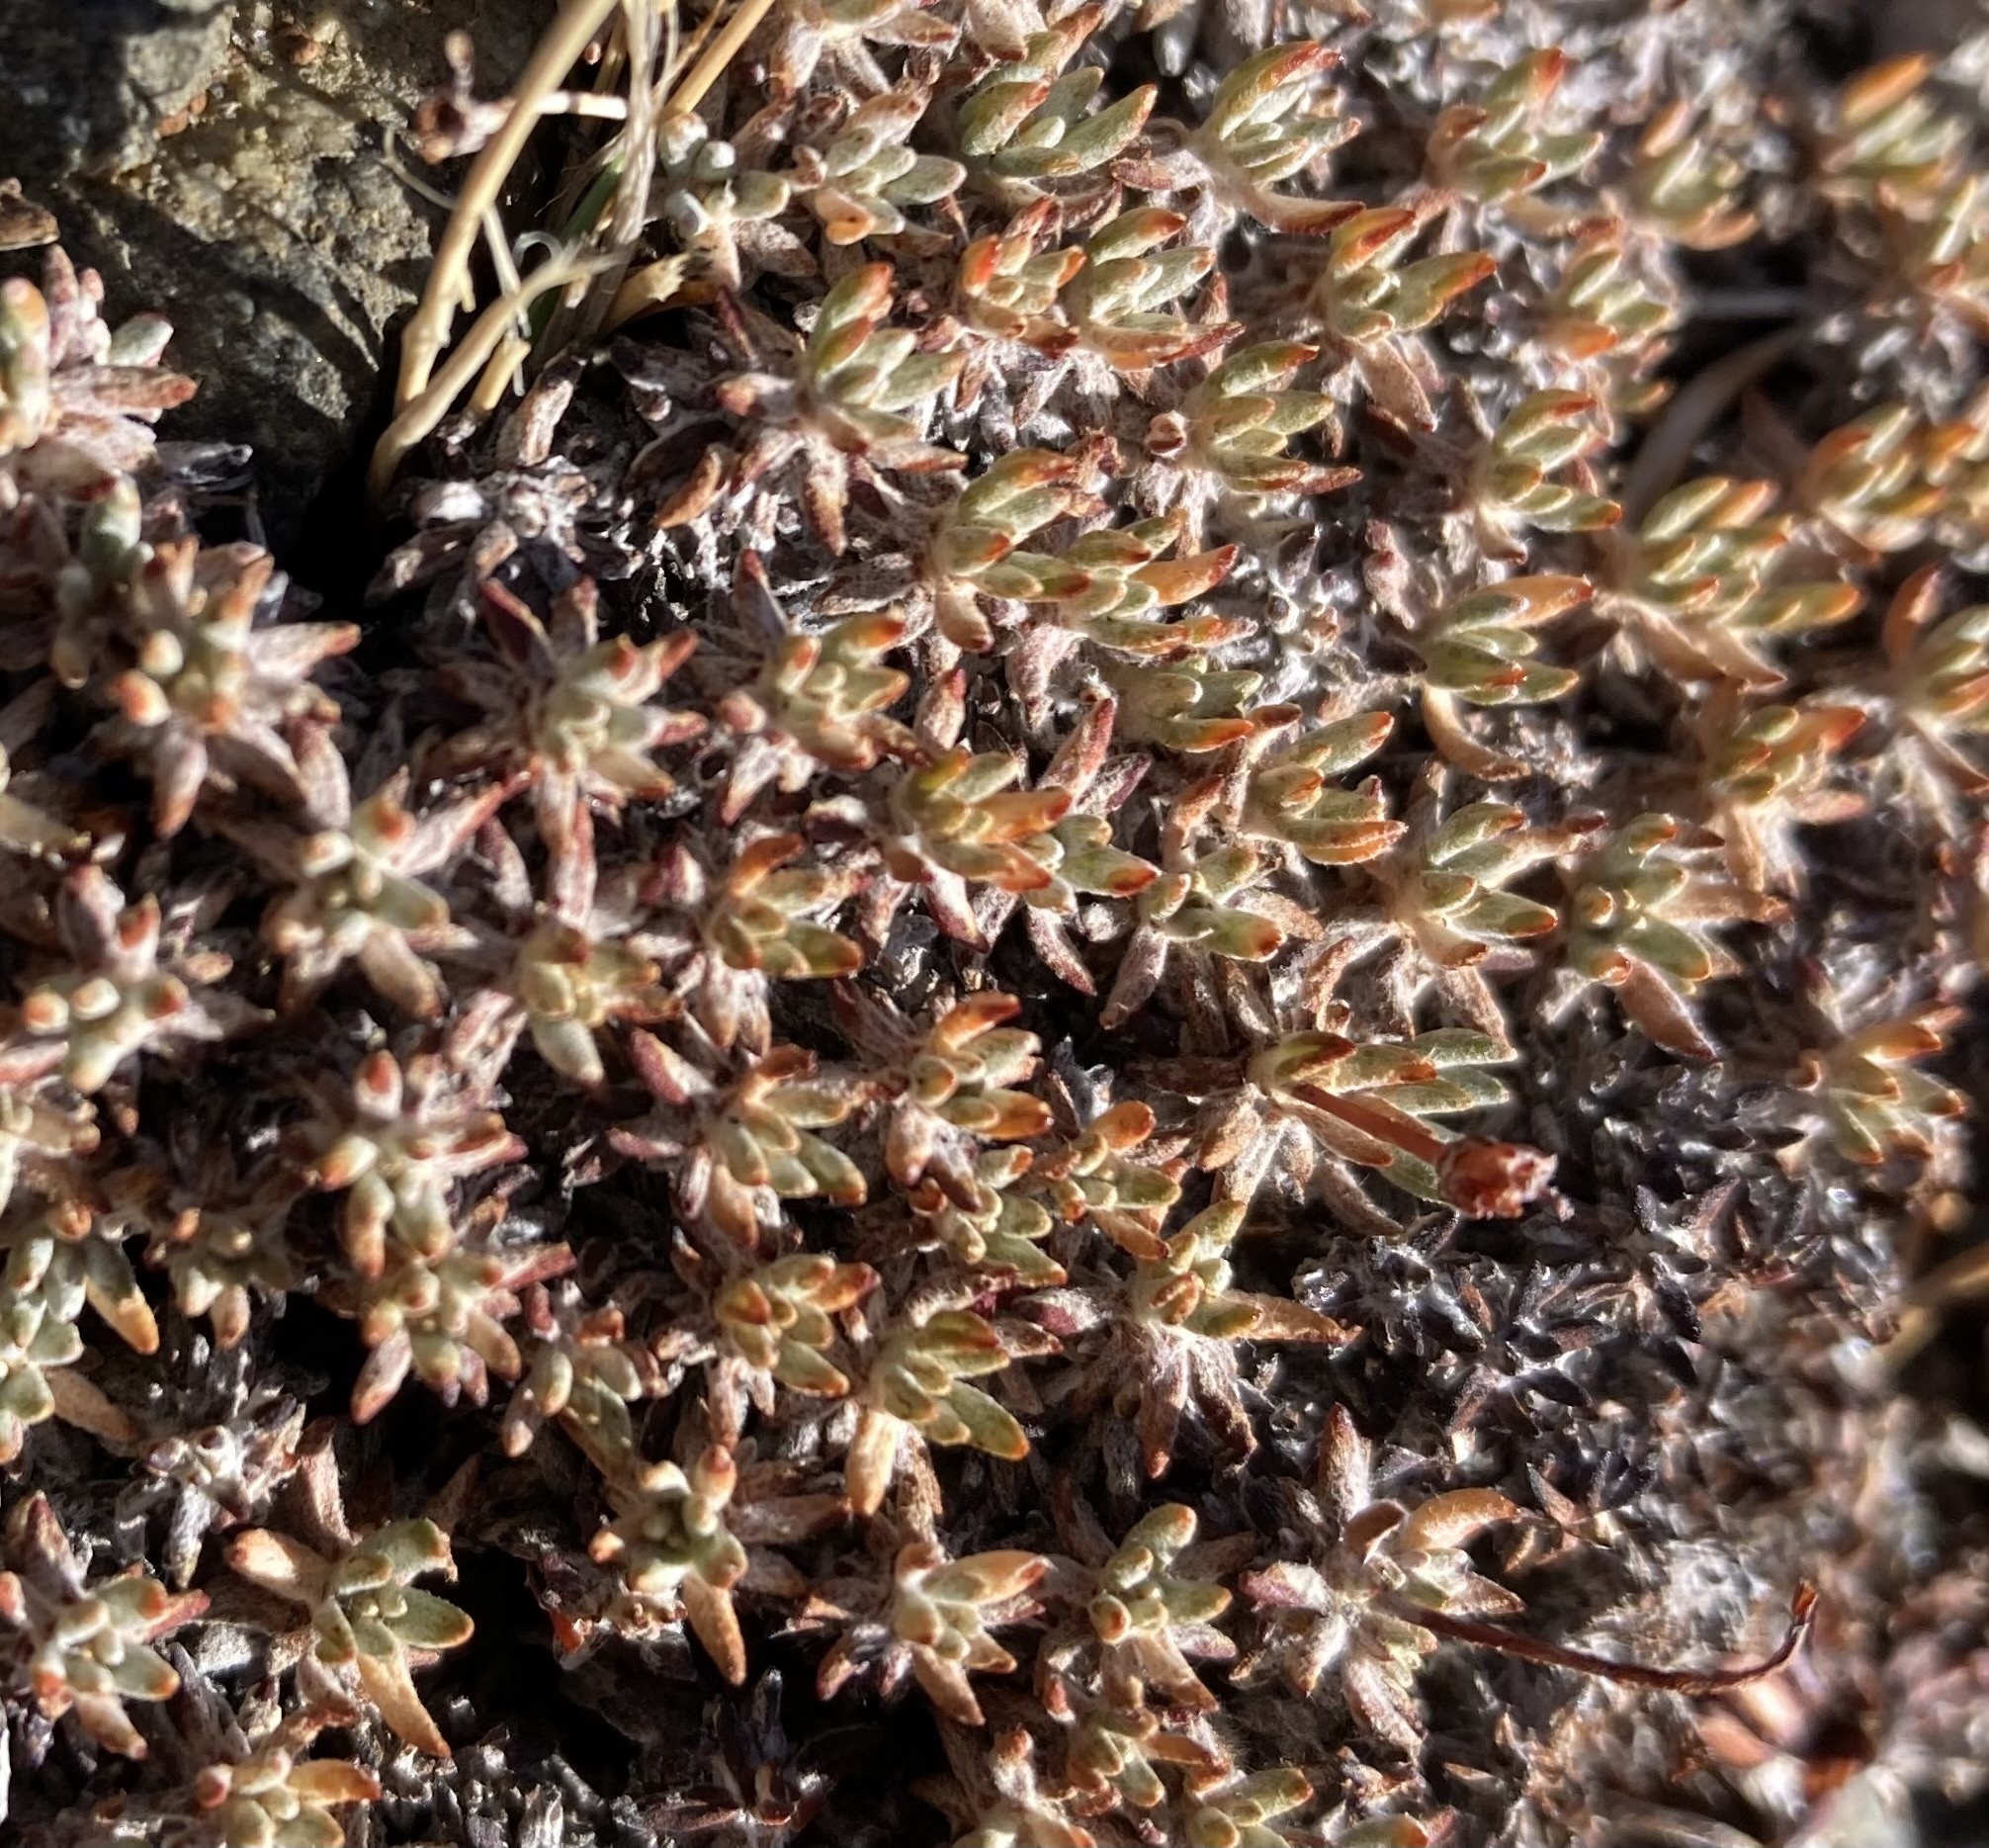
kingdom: Plantae
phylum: Tracheophyta
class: Magnoliopsida
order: Caryophyllales
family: Polygonaceae
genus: Eriogonum
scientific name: Eriogonum wrightii
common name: Bastard-sage
